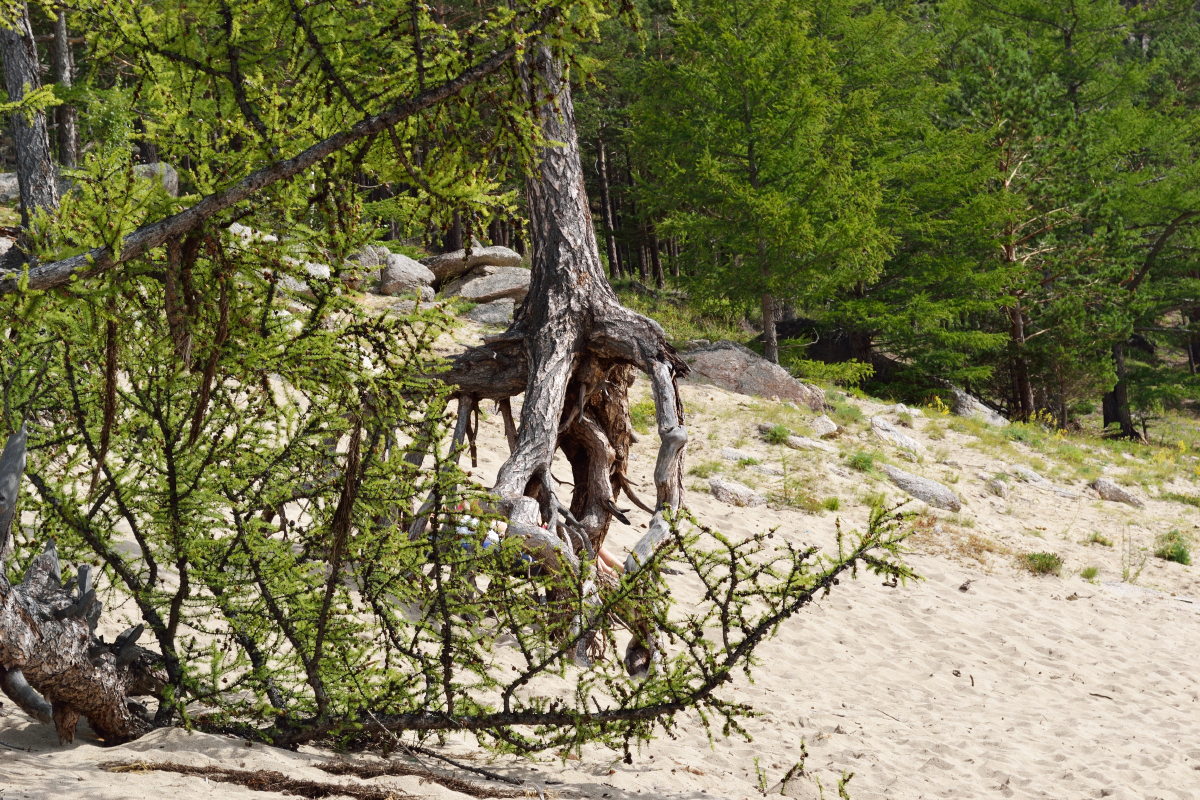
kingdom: Plantae
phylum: Tracheophyta
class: Pinopsida
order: Pinales
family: Pinaceae
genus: Larix
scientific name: Larix sibirica
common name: Siberian larch
